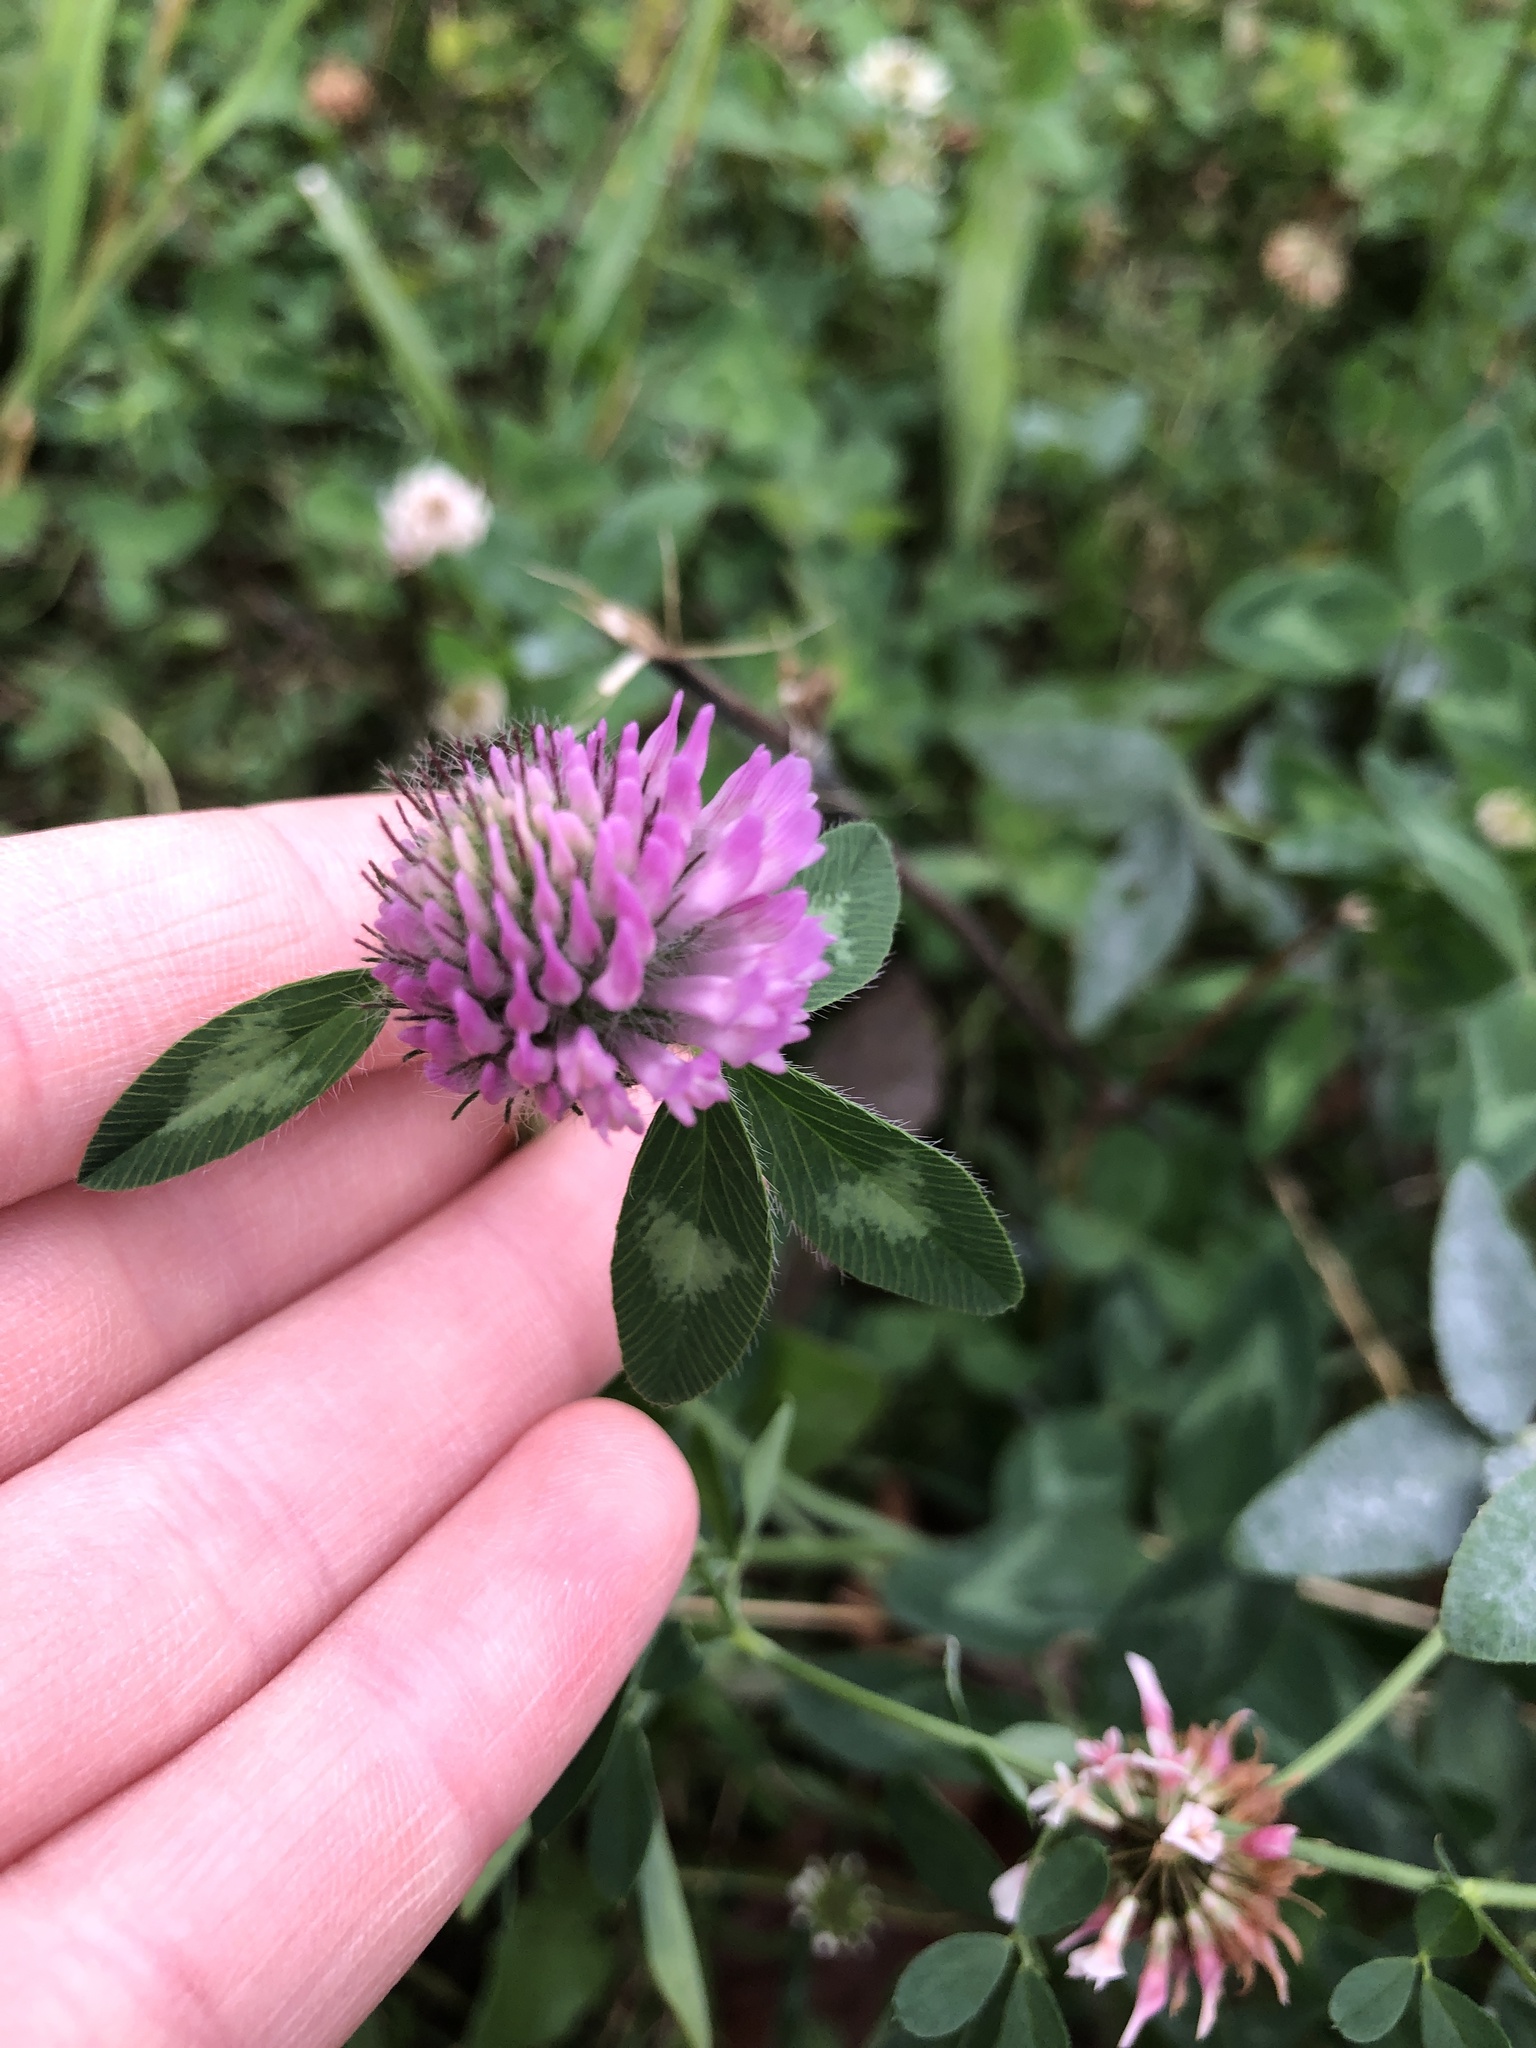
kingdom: Plantae
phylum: Tracheophyta
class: Magnoliopsida
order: Fabales
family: Fabaceae
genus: Trifolium
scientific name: Trifolium pratense
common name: Red clover
